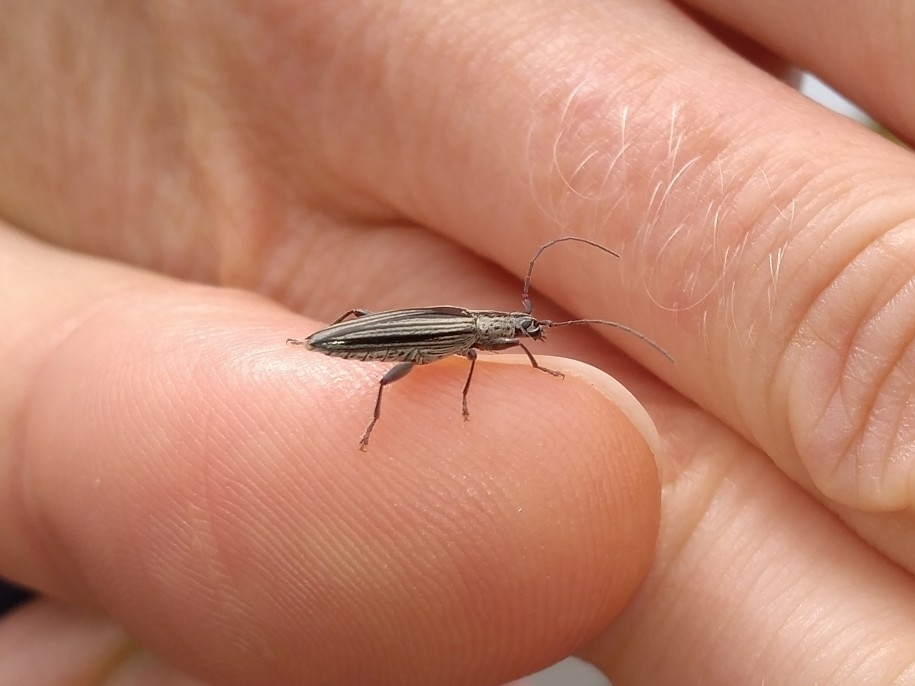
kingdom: Animalia
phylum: Arthropoda
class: Insecta
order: Coleoptera
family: Cerambycidae
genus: Coptomma
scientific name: Coptomma sulcatum
